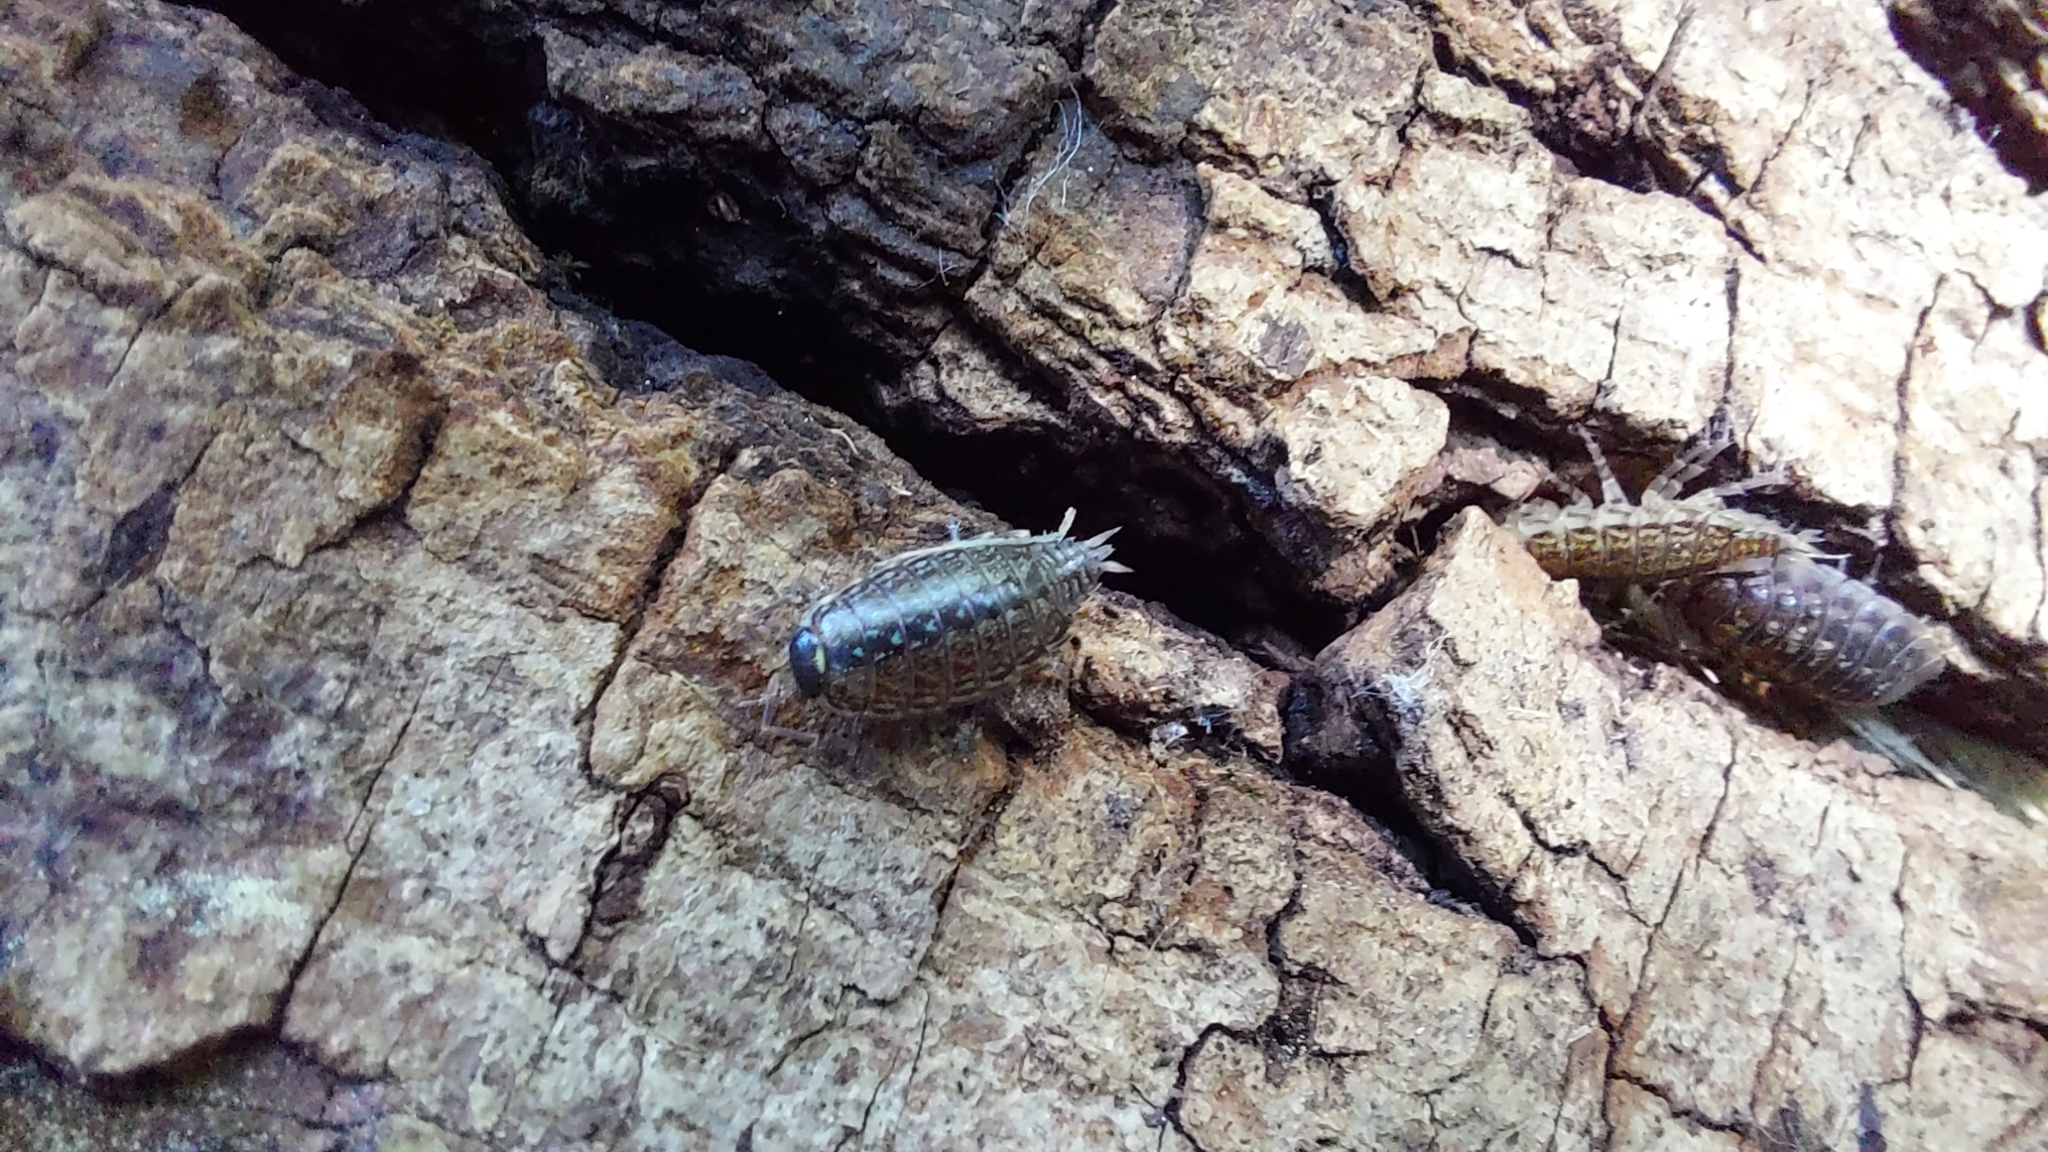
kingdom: Animalia
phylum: Arthropoda
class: Malacostraca
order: Isopoda
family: Philosciidae
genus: Philoscia
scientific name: Philoscia muscorum
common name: Common striped woodlouse
